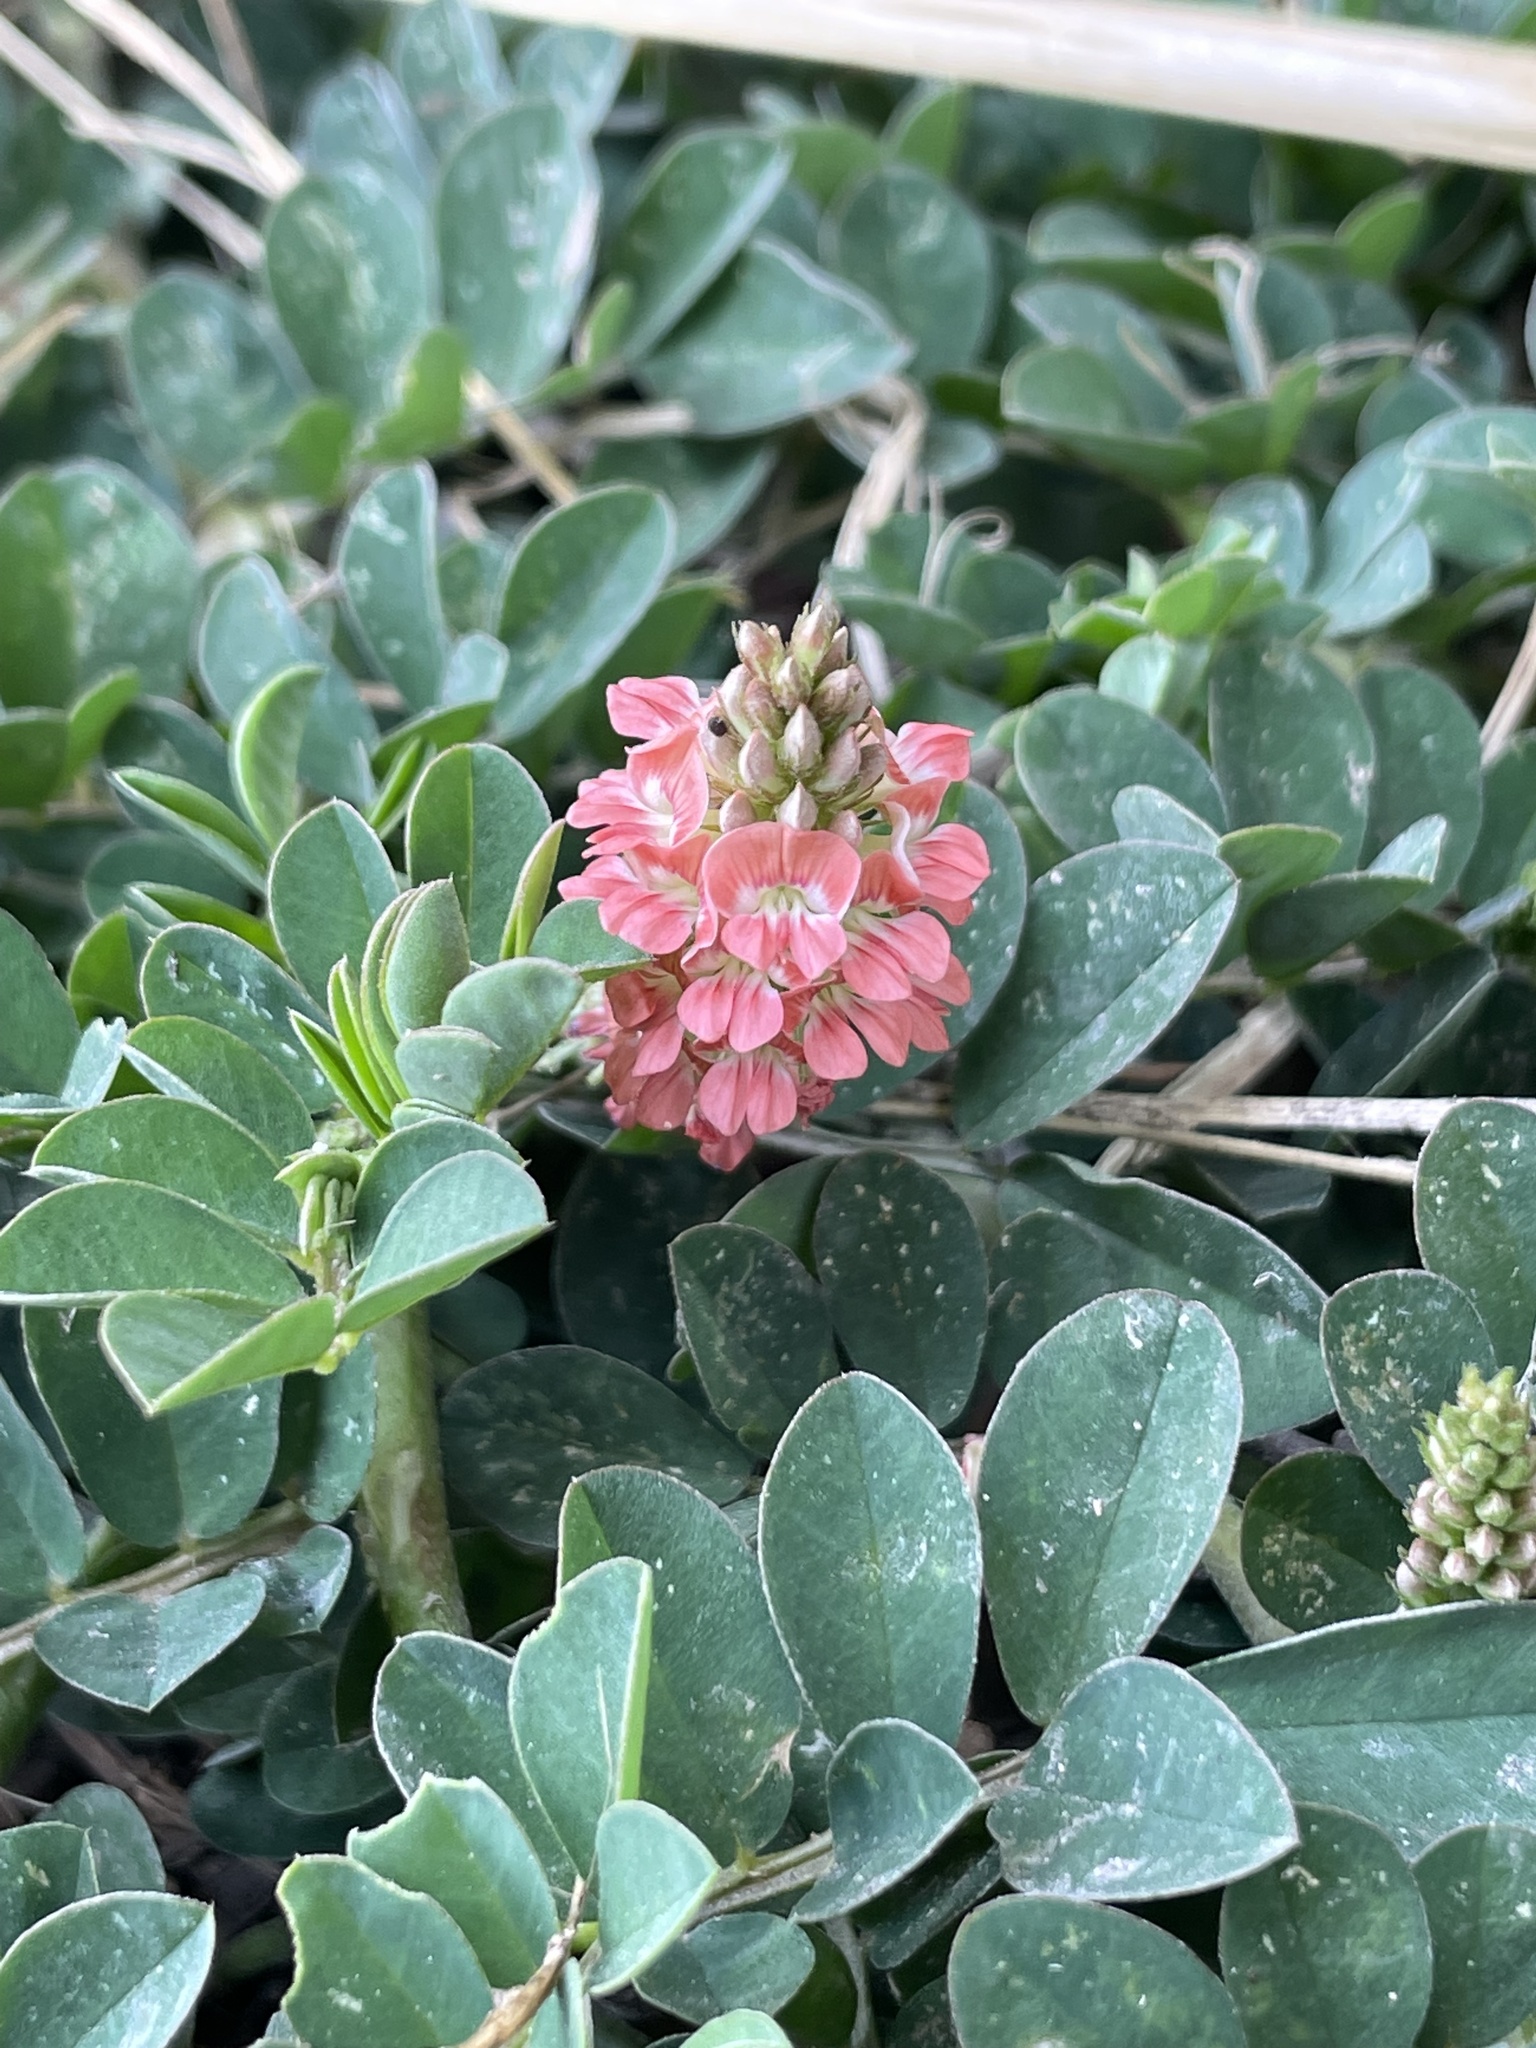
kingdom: Plantae
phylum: Tracheophyta
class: Magnoliopsida
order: Fabales
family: Fabaceae
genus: Indigofera
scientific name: Indigofera suffruticosa
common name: Anil de pasto
